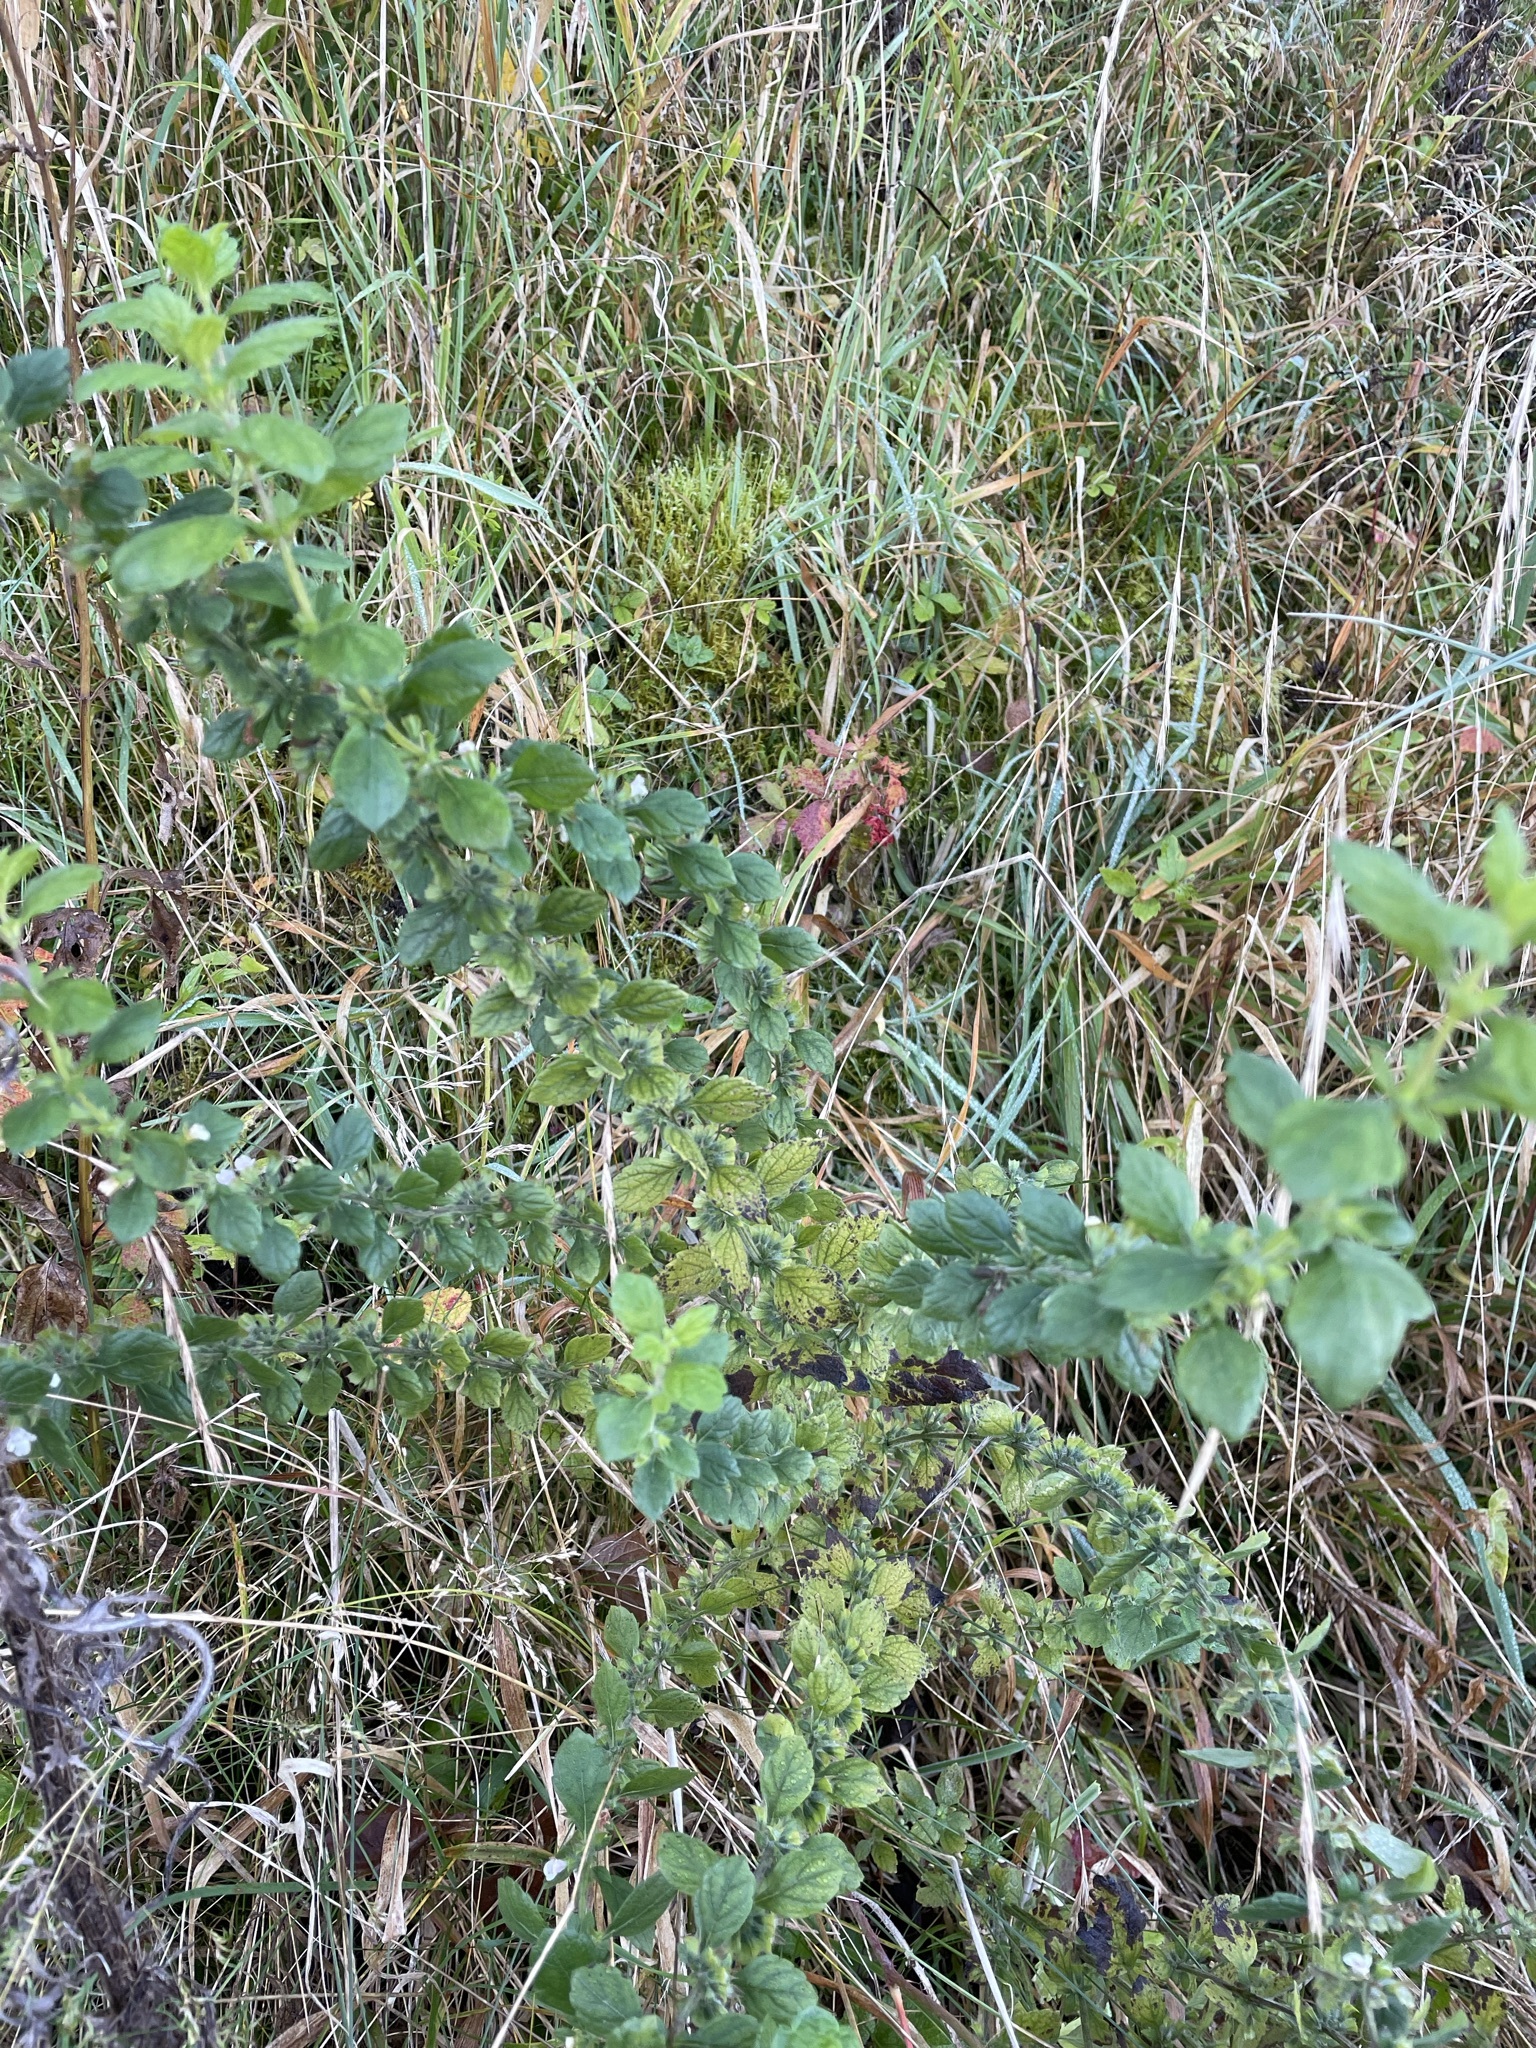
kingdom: Plantae
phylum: Tracheophyta
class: Magnoliopsida
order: Lamiales
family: Lamiaceae
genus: Melissa
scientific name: Melissa officinalis
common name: Balm
